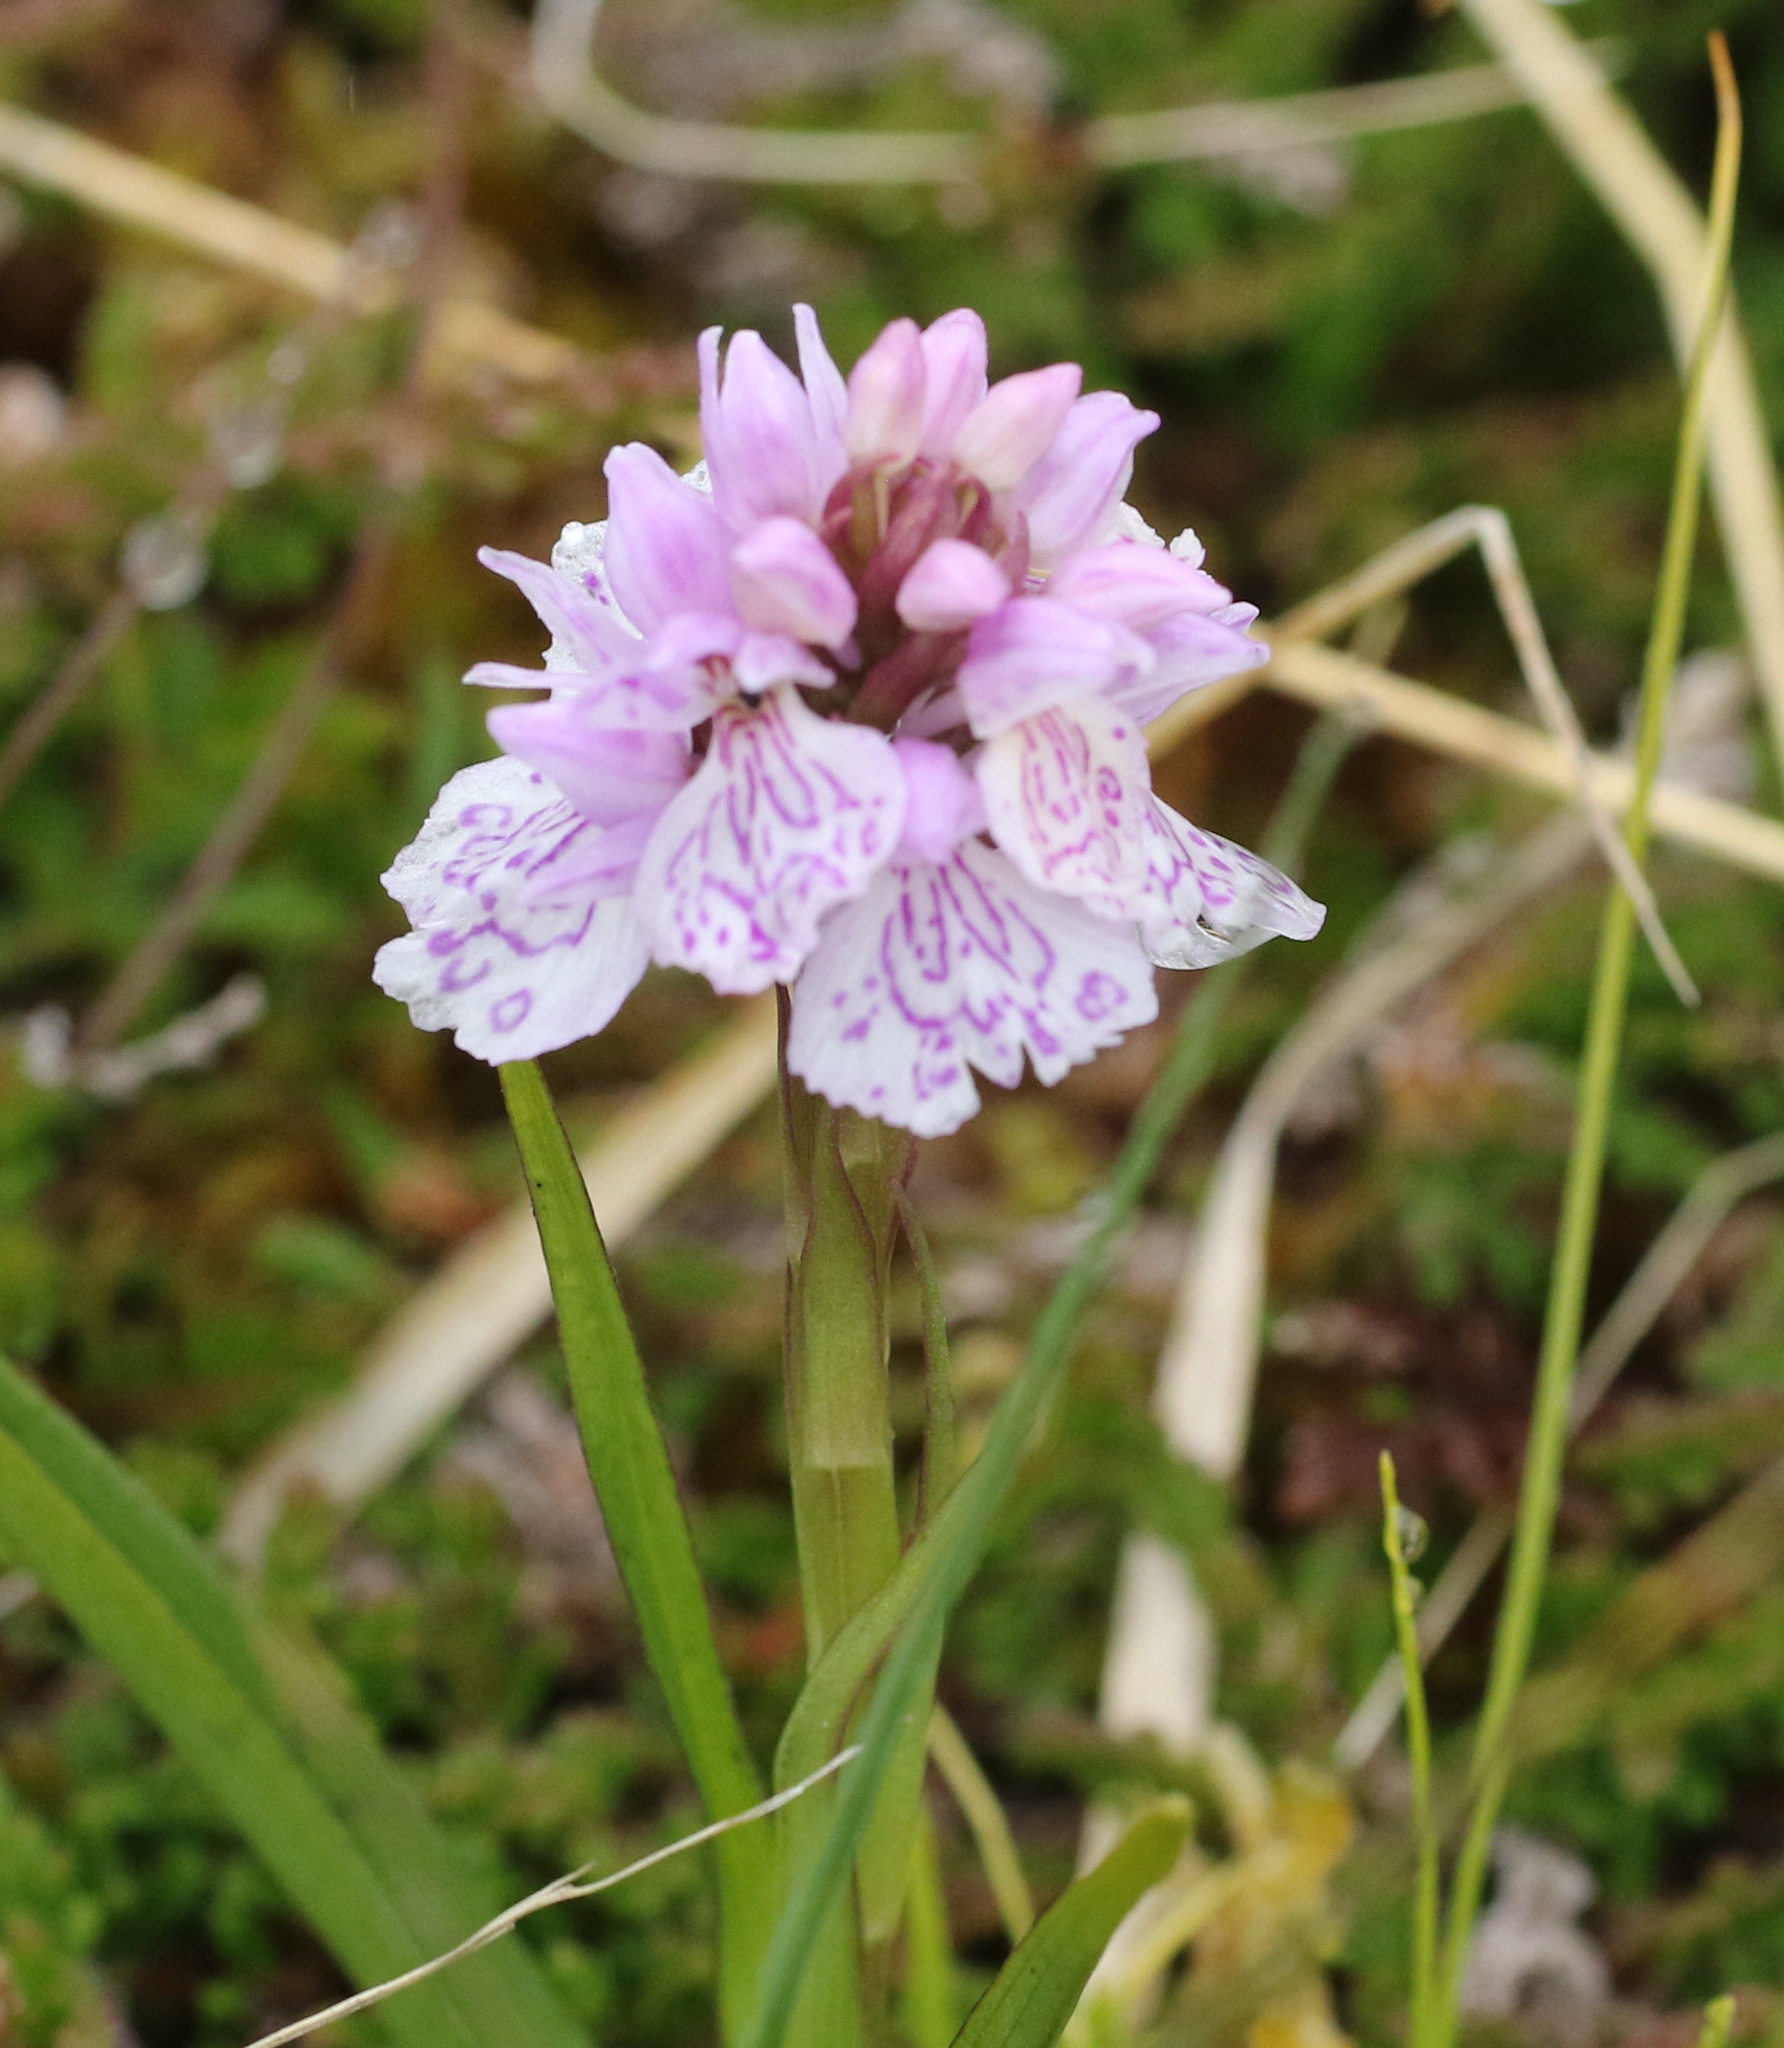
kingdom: Plantae
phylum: Tracheophyta
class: Liliopsida
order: Asparagales
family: Orchidaceae
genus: Dactylorhiza
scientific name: Dactylorhiza maculata
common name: Heath spotted-orchid
